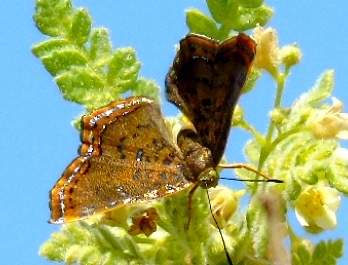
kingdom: Animalia
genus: Caria
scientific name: Caria ino
